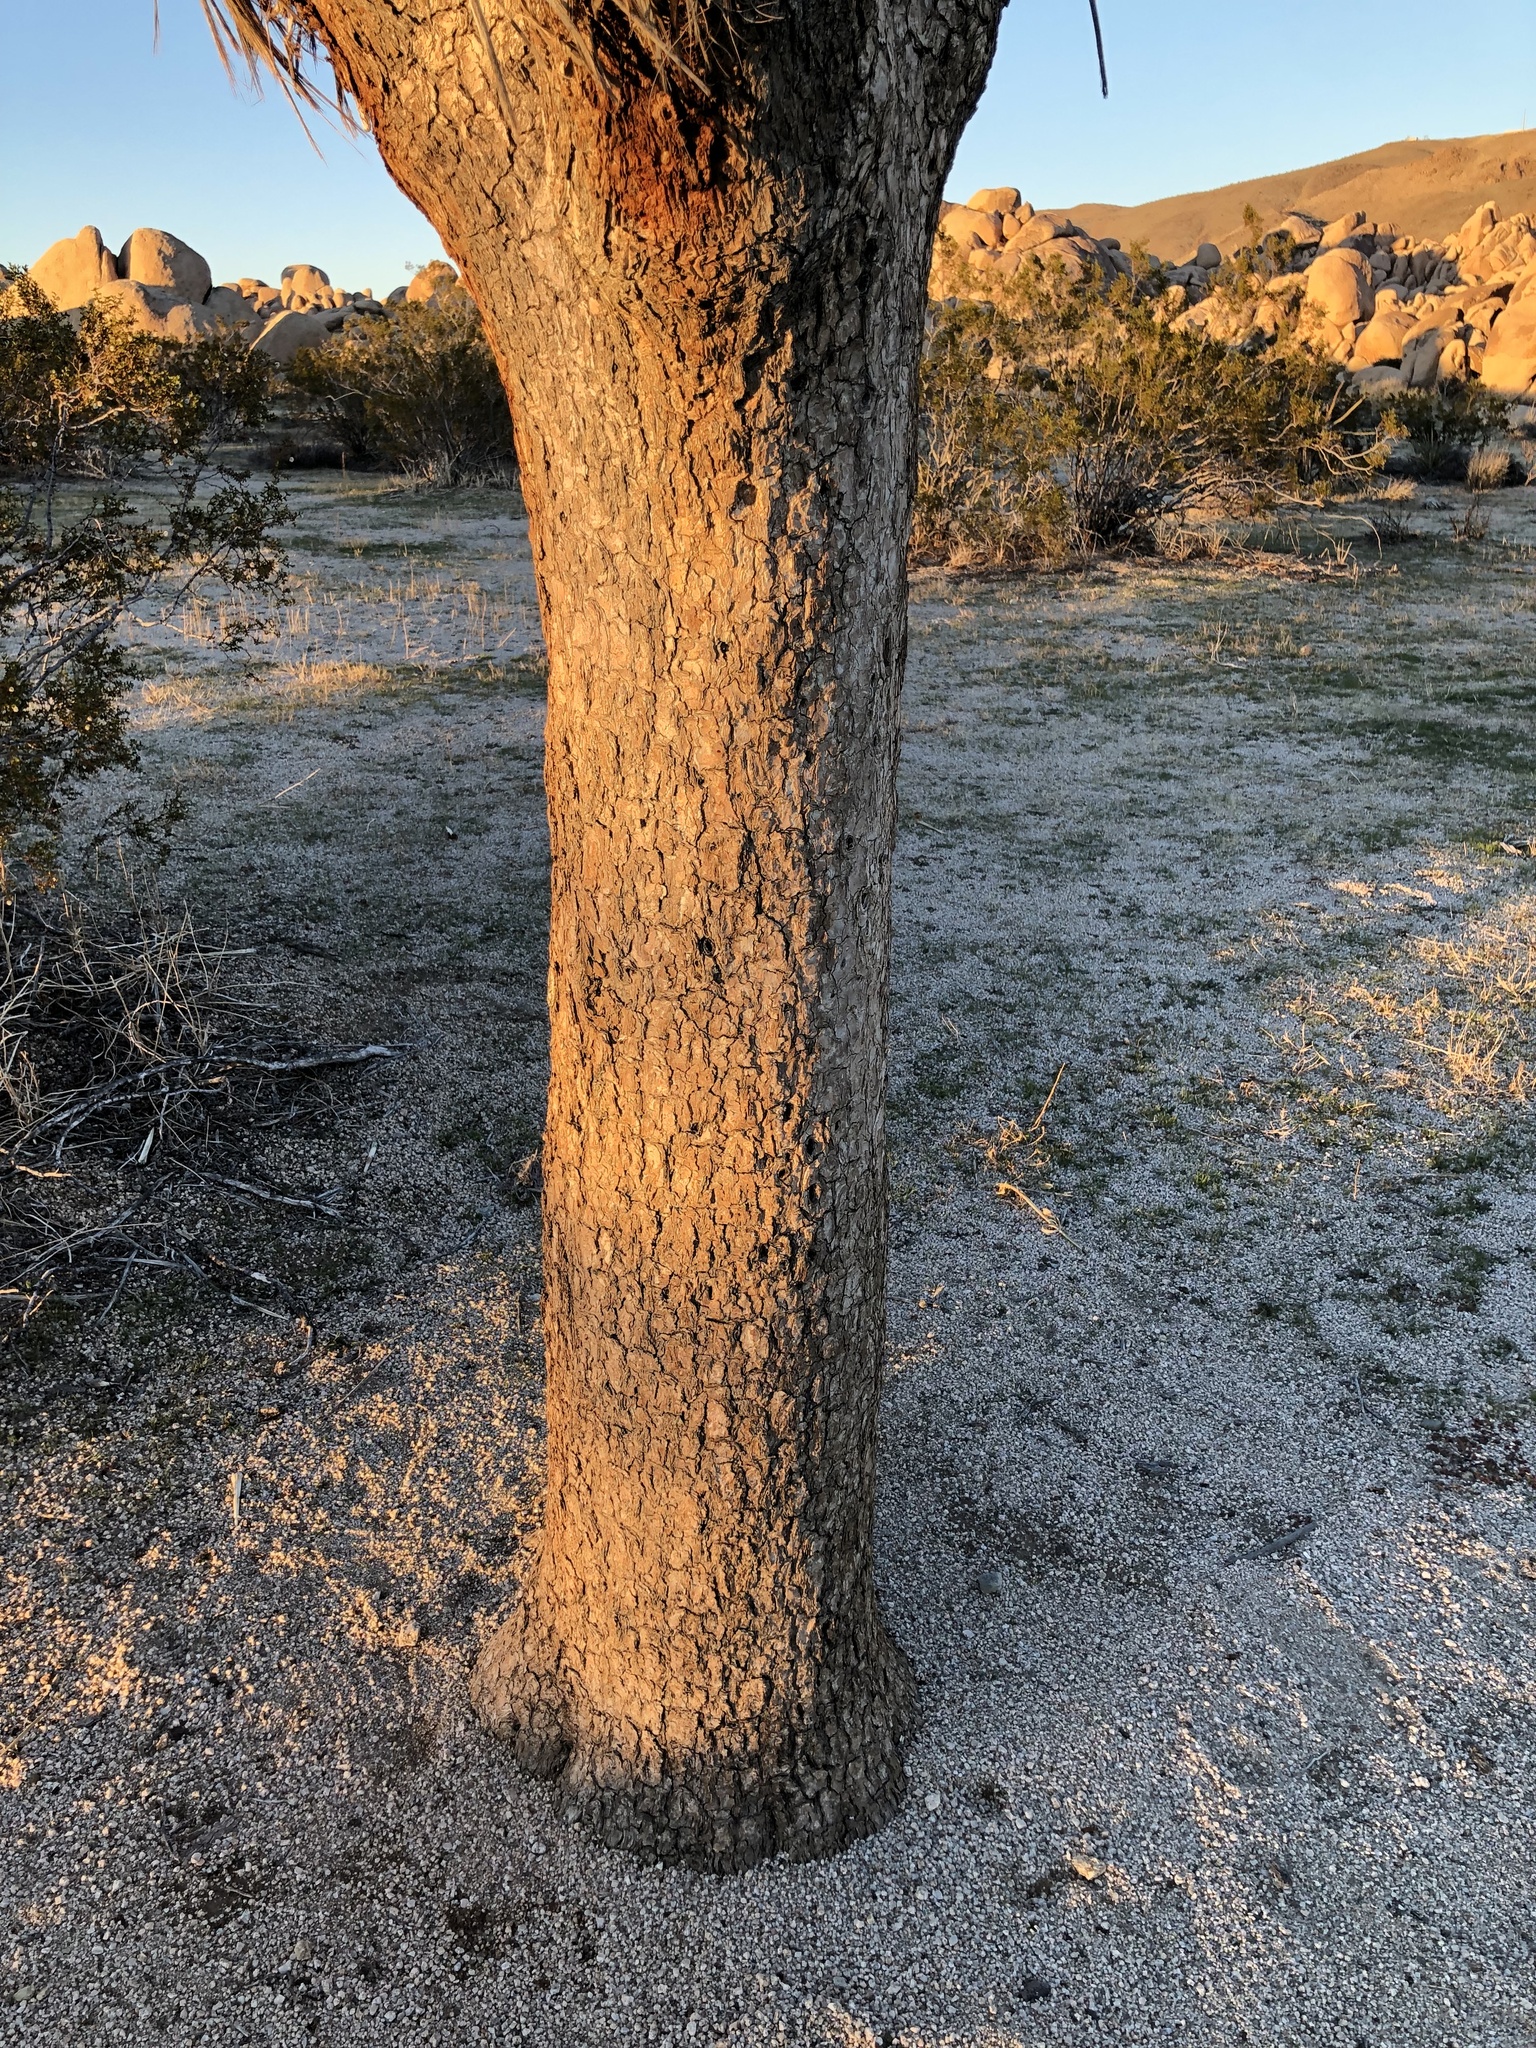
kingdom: Plantae
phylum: Tracheophyta
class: Liliopsida
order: Asparagales
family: Asparagaceae
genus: Yucca
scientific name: Yucca brevifolia
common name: Joshua tree
